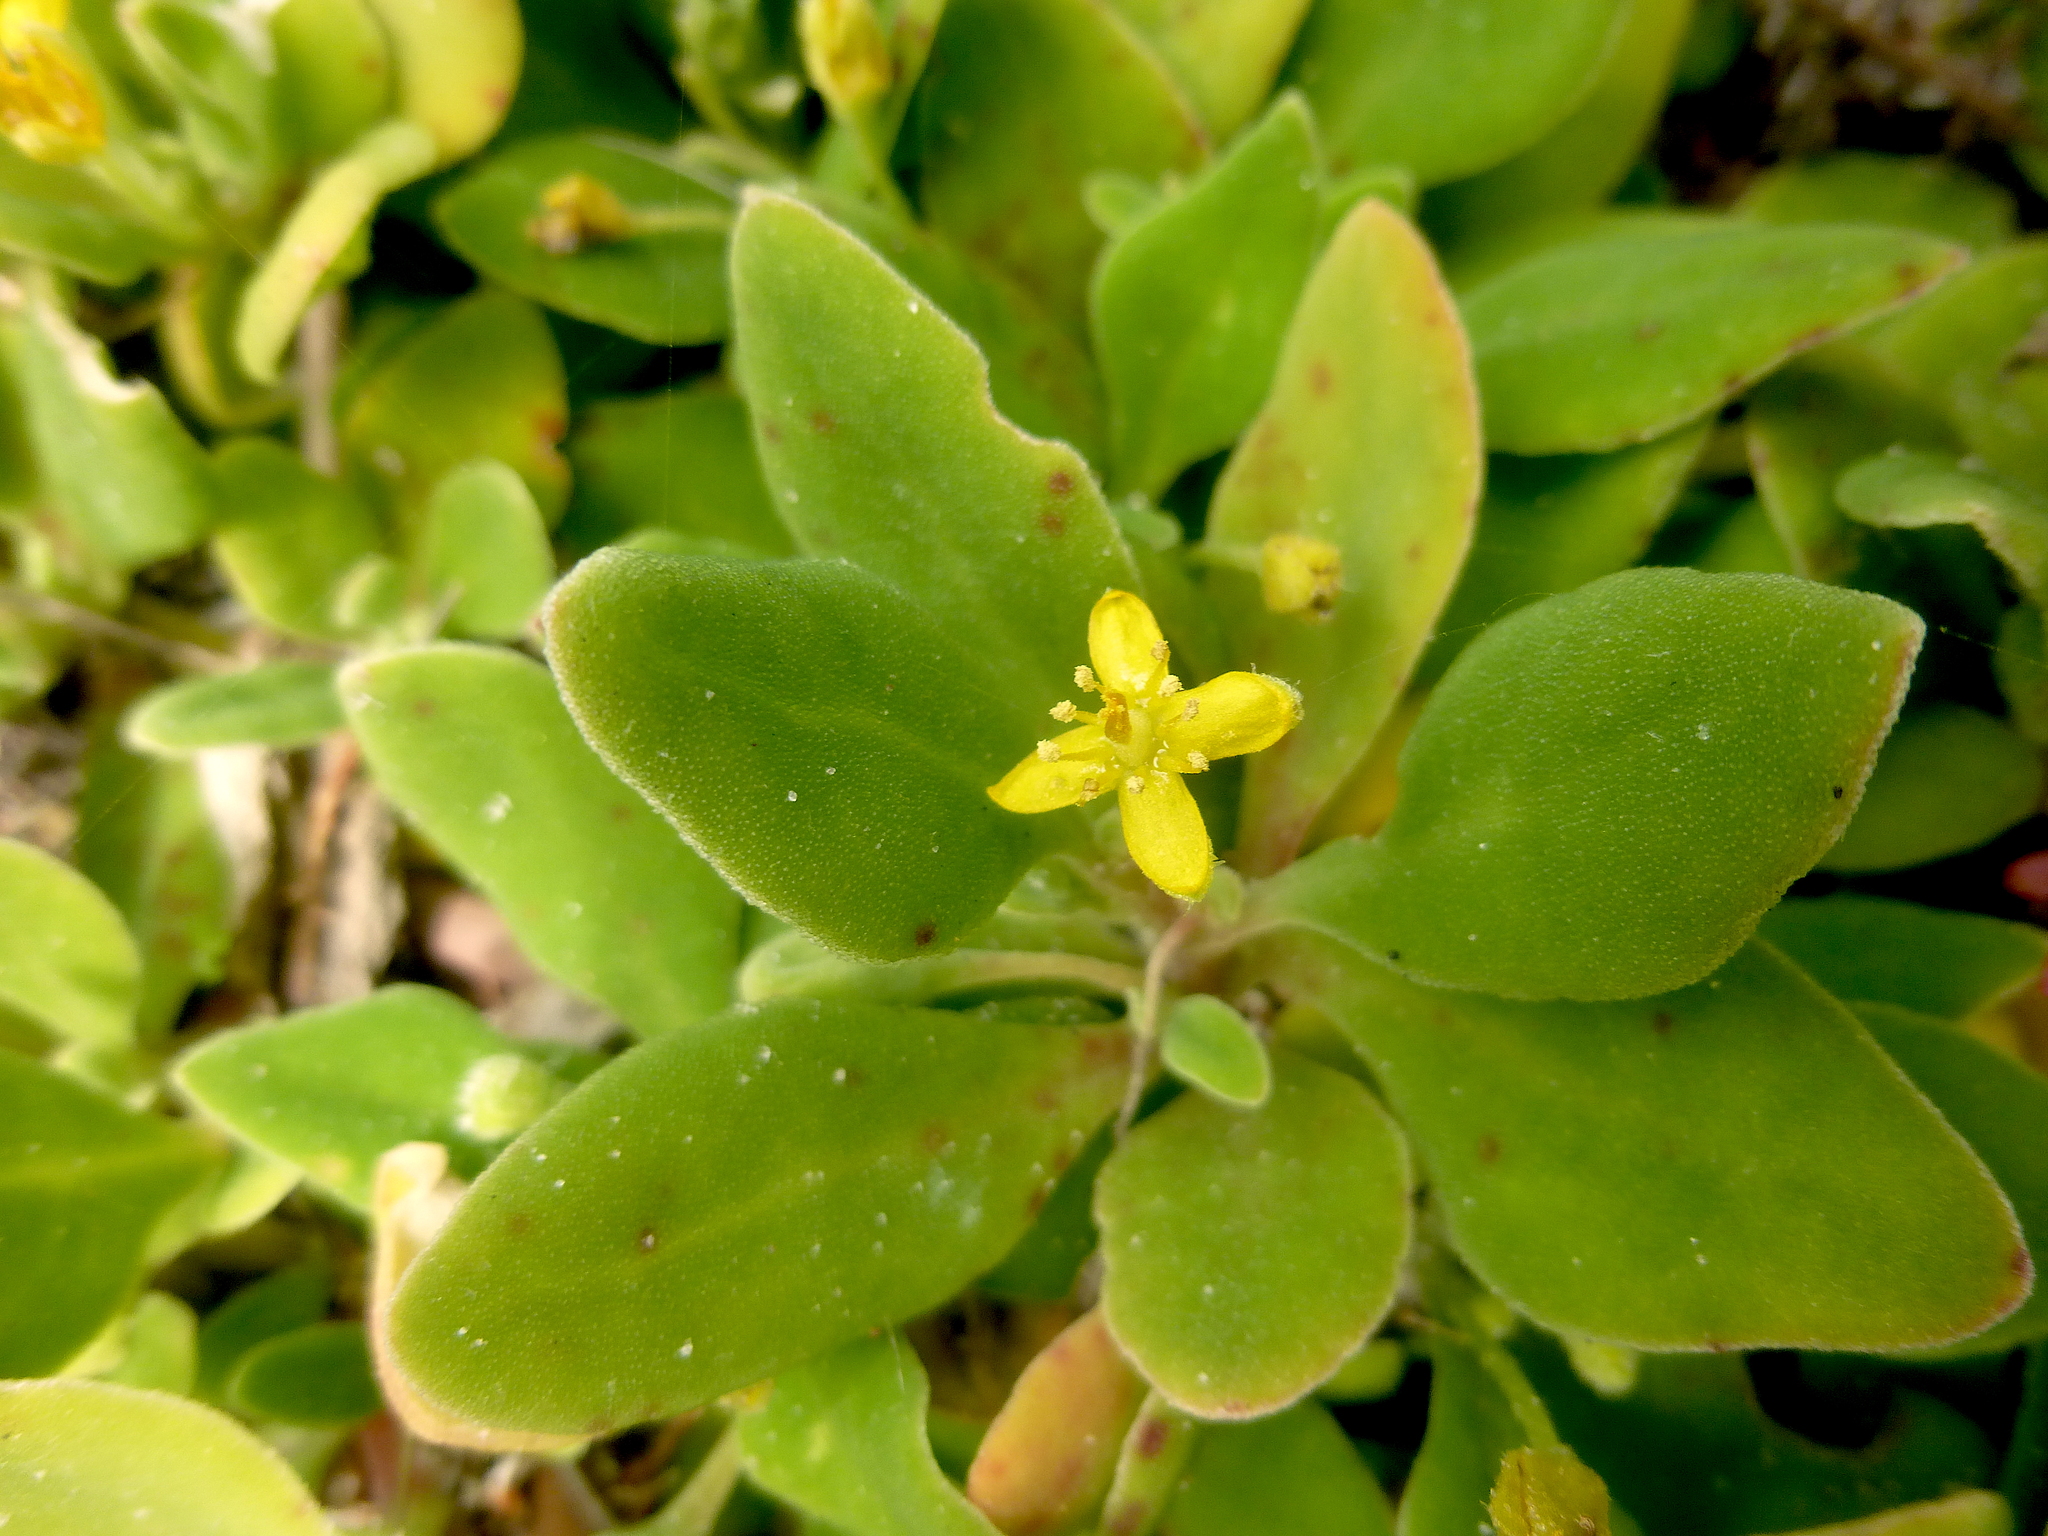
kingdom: Plantae
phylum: Tracheophyta
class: Magnoliopsida
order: Caryophyllales
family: Aizoaceae
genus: Tetragonia
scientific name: Tetragonia implexicoma
